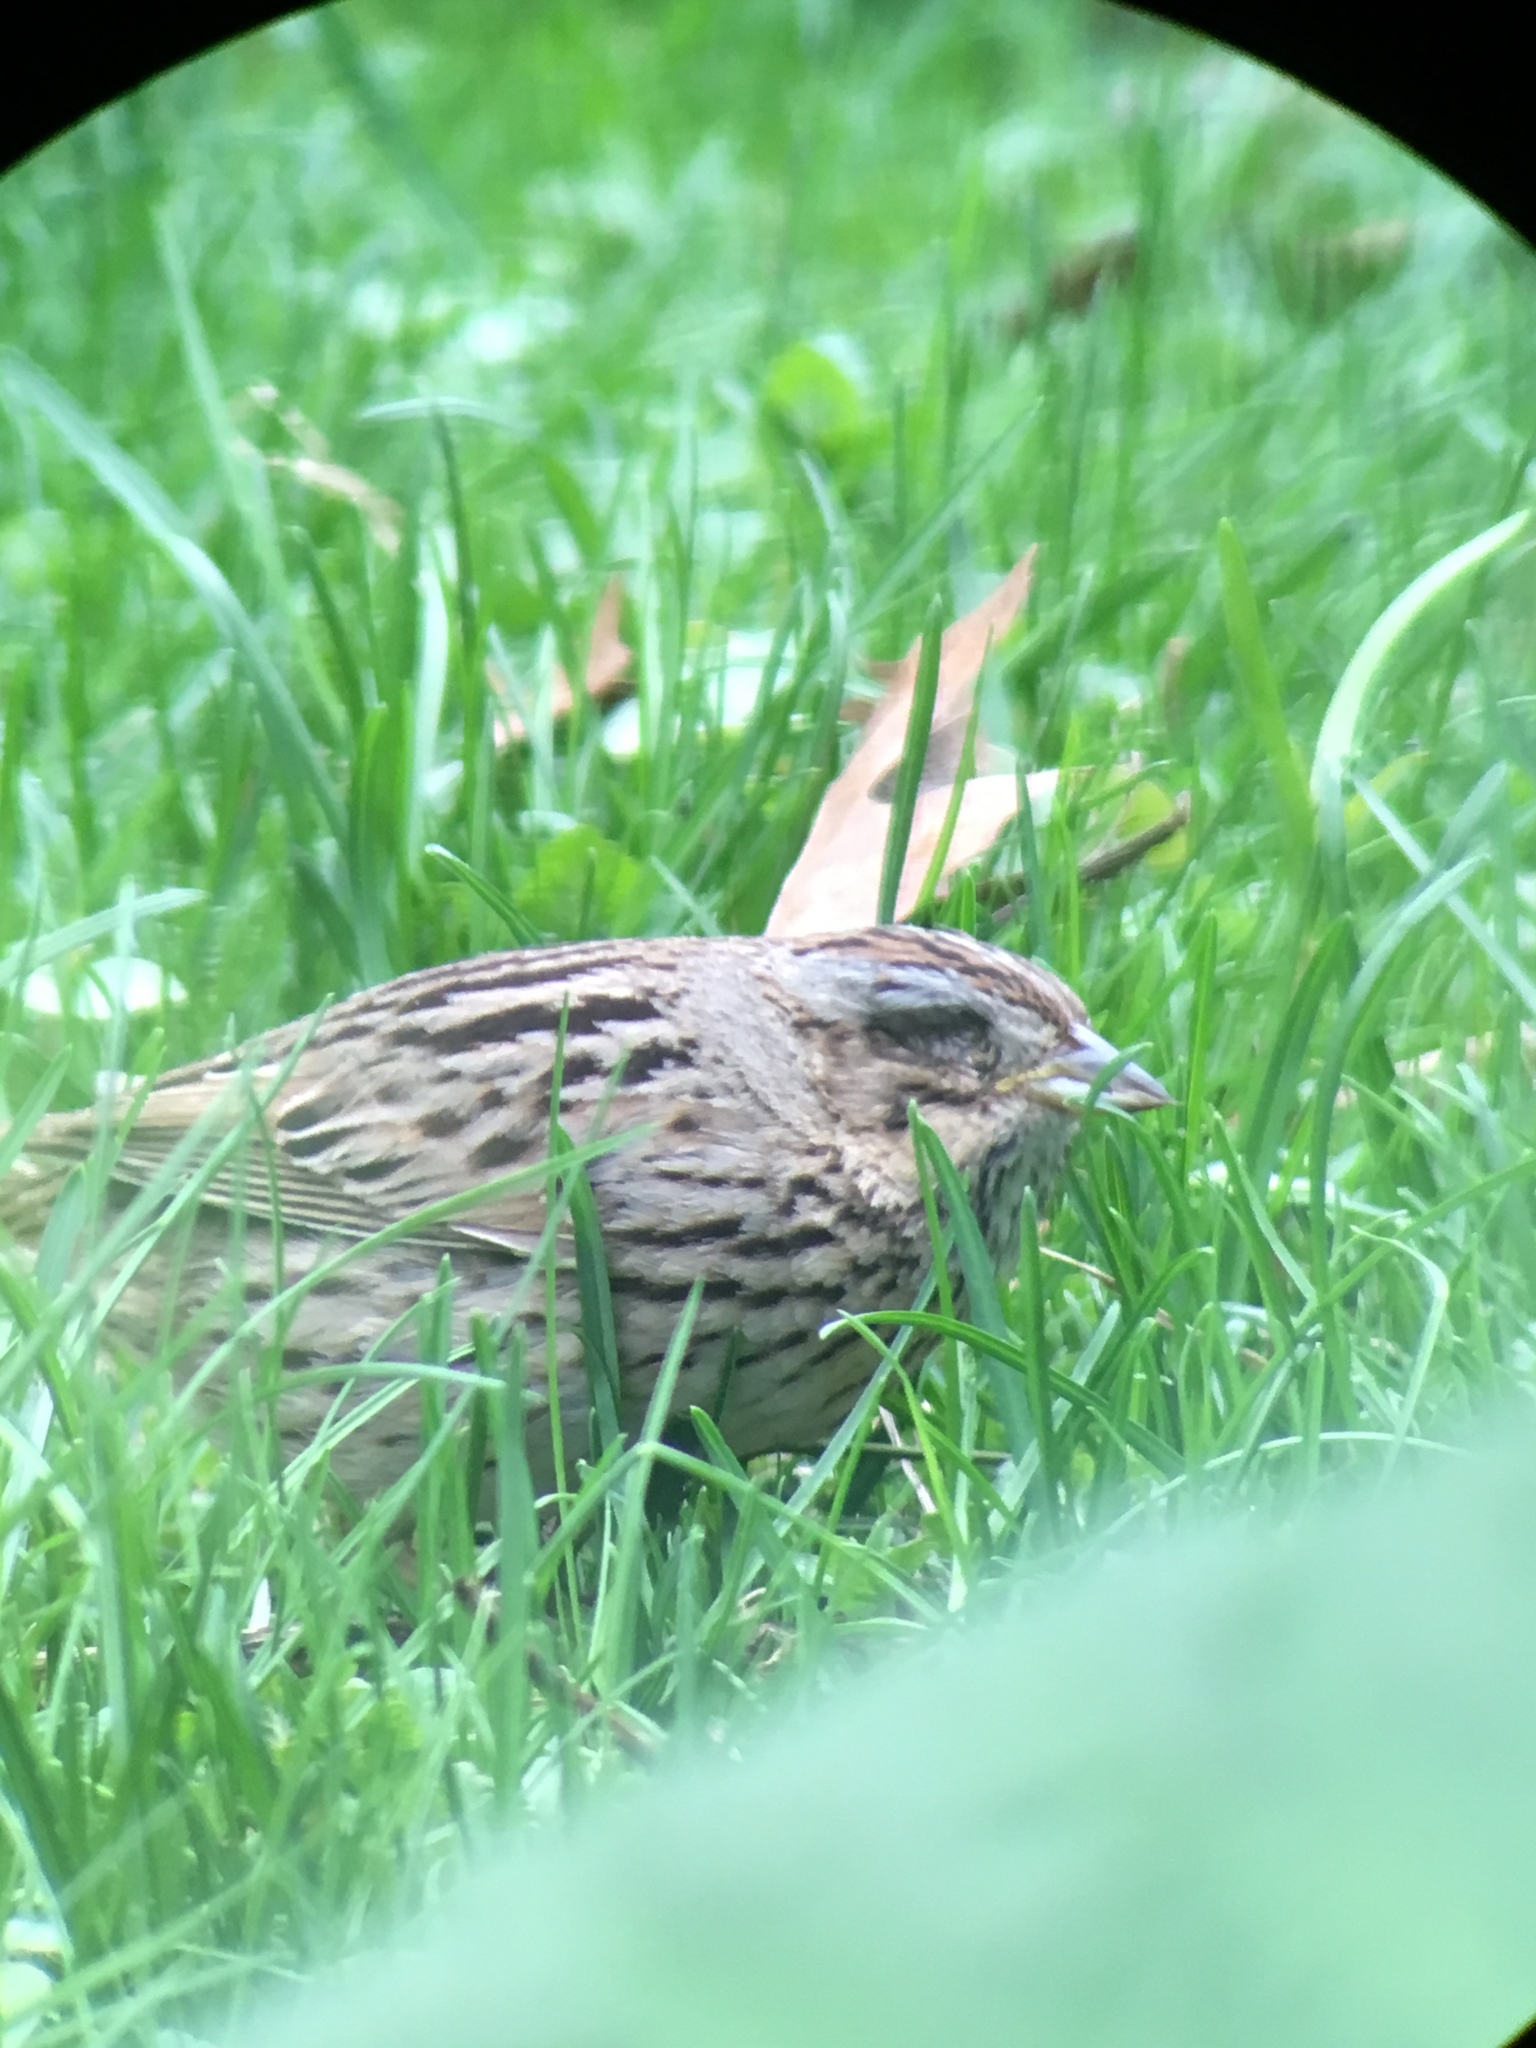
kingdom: Animalia
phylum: Chordata
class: Aves
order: Passeriformes
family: Passerellidae
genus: Melospiza
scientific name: Melospiza lincolnii
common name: Lincoln's sparrow
